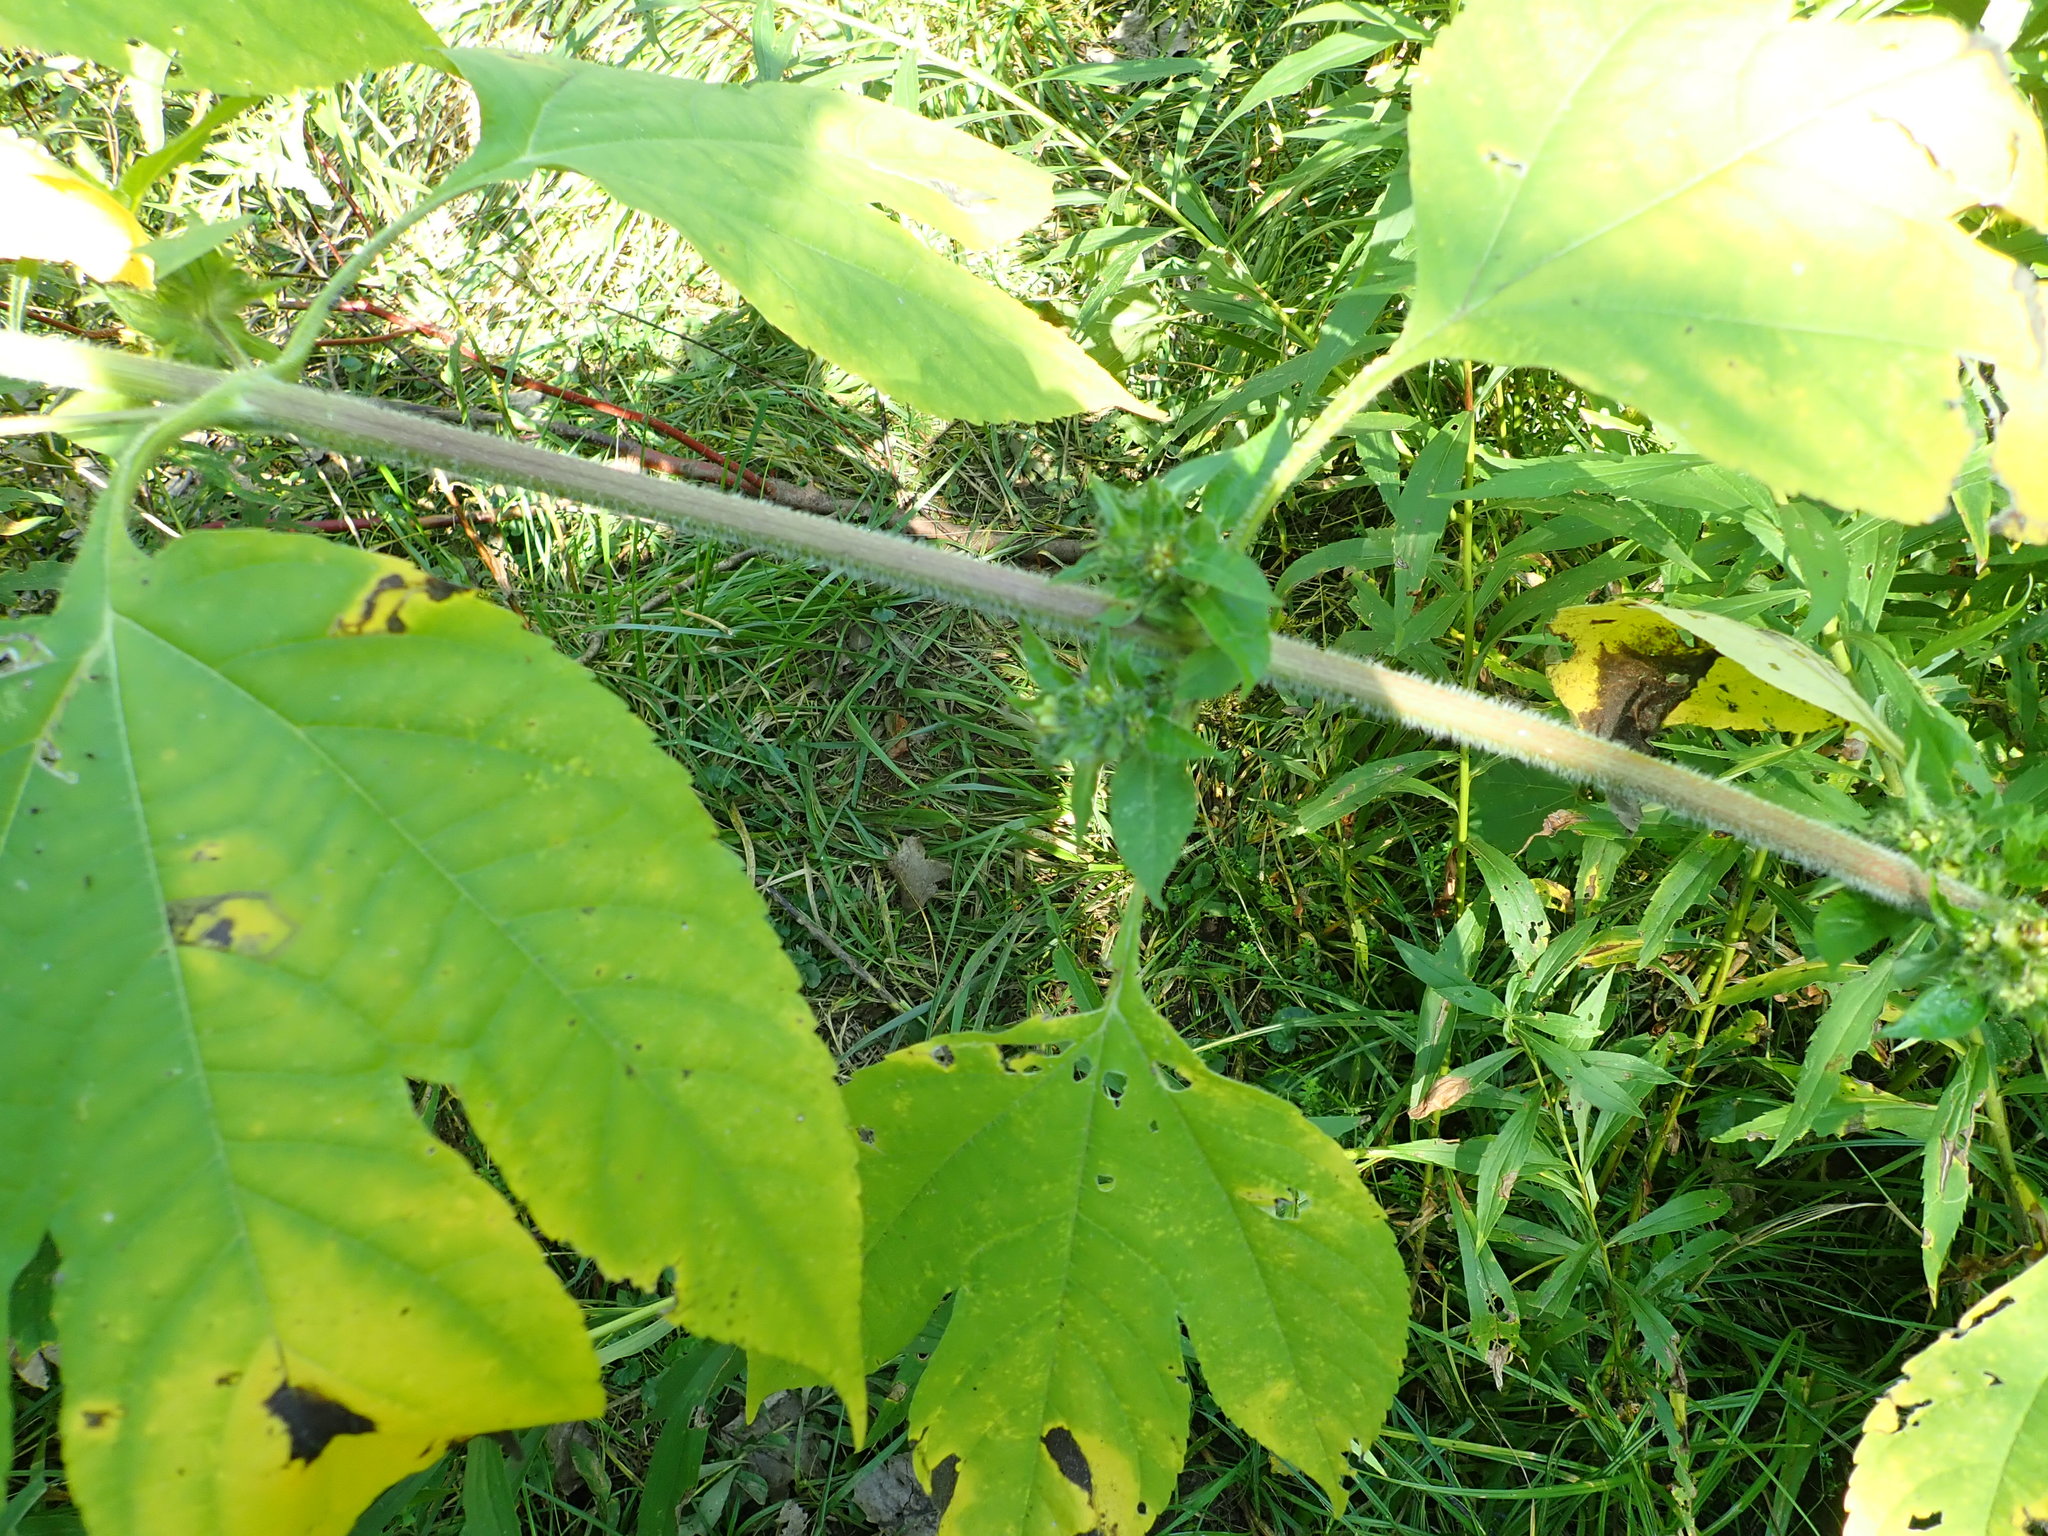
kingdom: Plantae
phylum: Tracheophyta
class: Magnoliopsida
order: Asterales
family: Asteraceae
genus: Ambrosia
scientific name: Ambrosia trifida
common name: Giant ragweed
